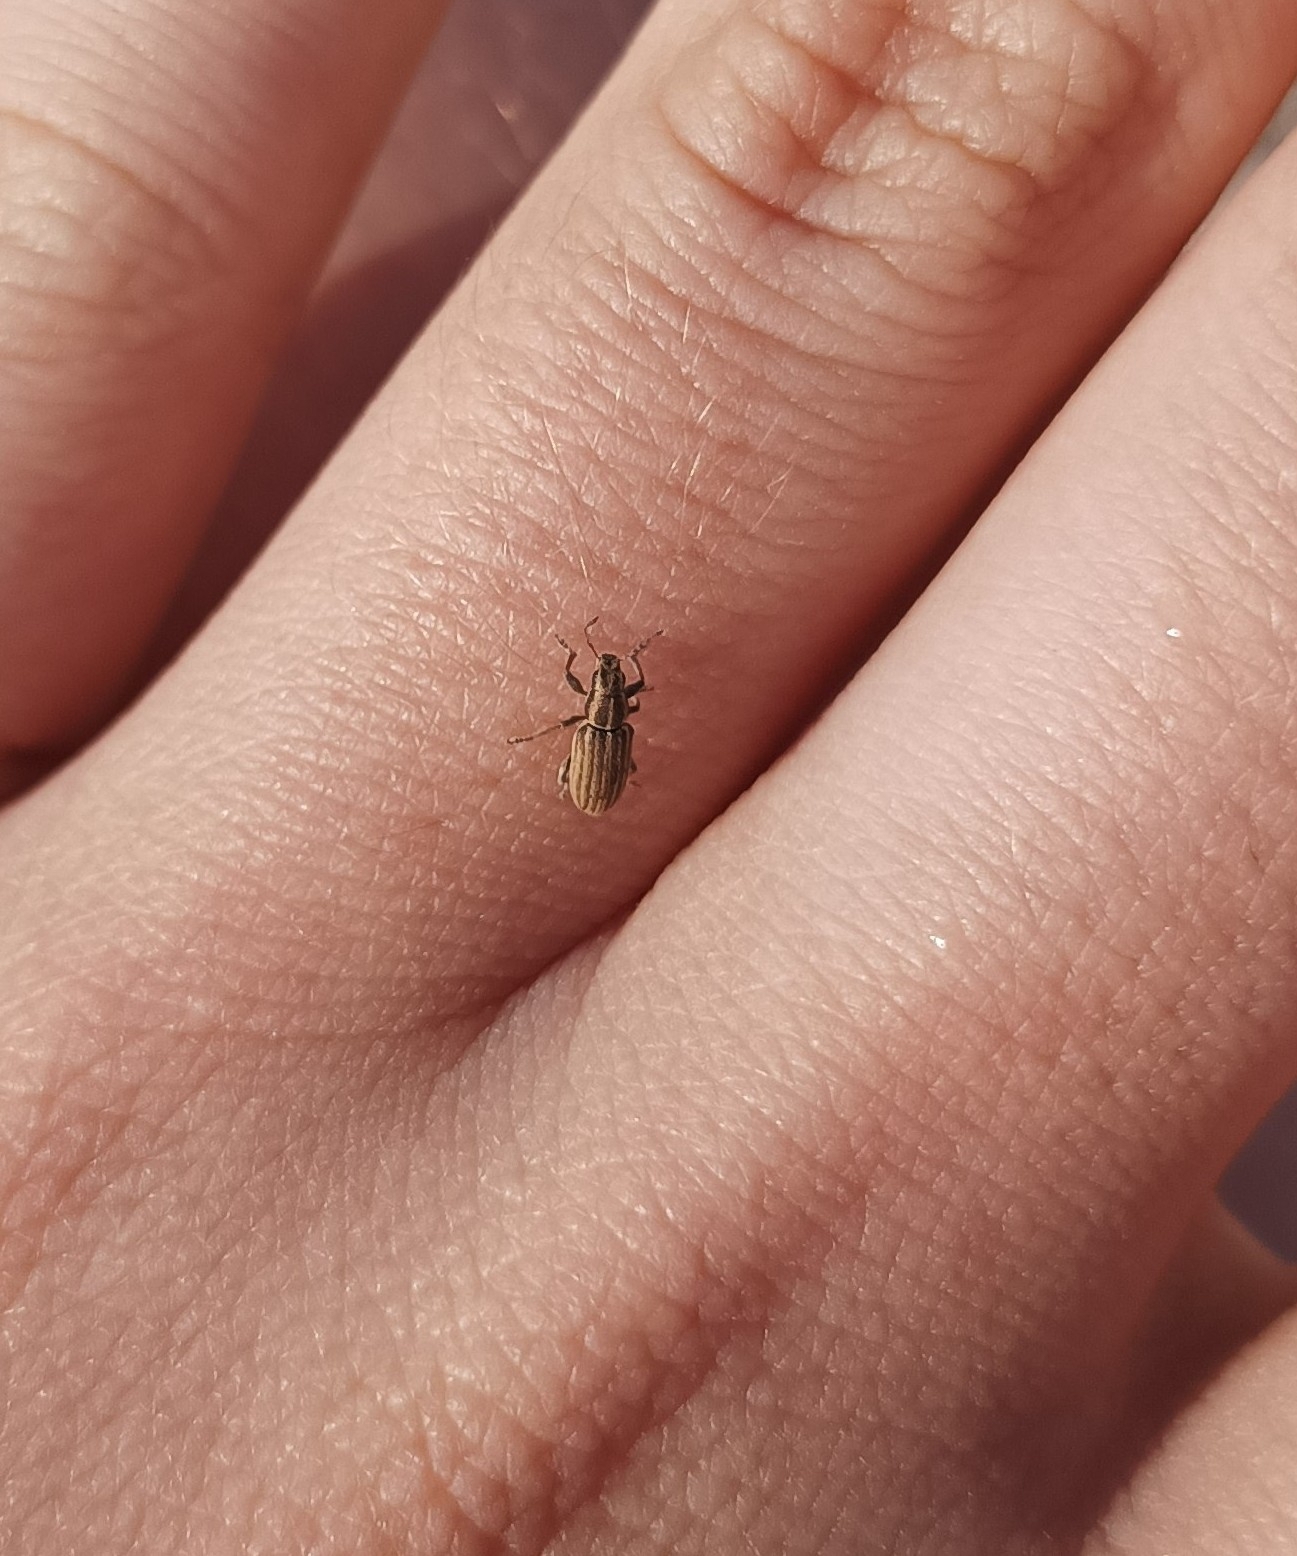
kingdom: Animalia
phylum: Arthropoda
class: Insecta
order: Coleoptera
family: Curculionidae
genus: Sitona
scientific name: Sitona lineatus
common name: Weevil
